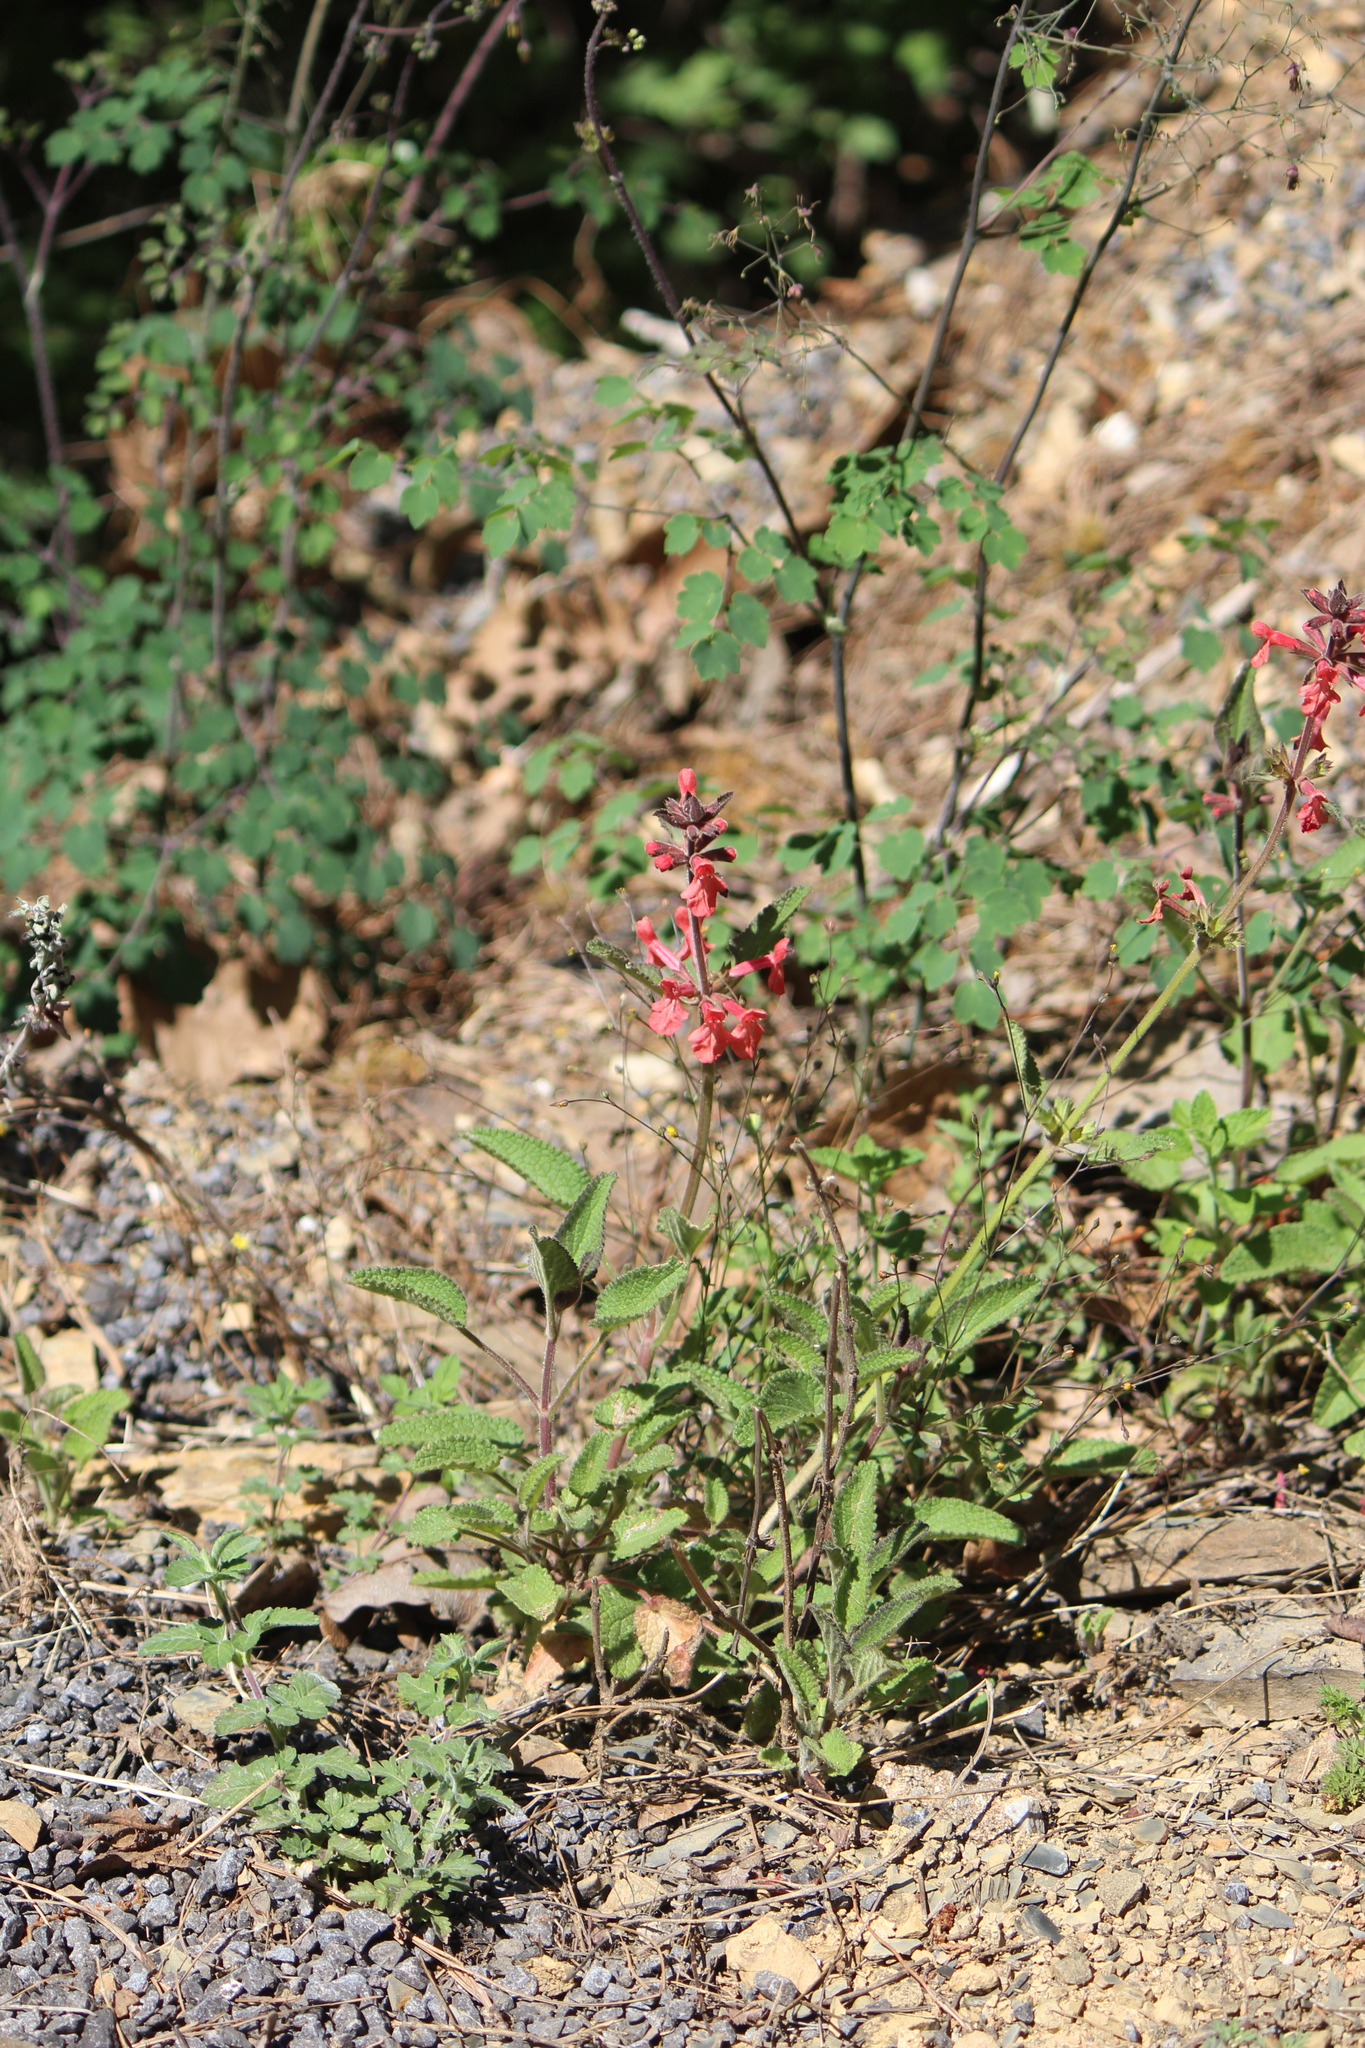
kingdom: Plantae
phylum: Tracheophyta
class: Magnoliopsida
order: Lamiales
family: Lamiaceae
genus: Stachys
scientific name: Stachys coccinea
